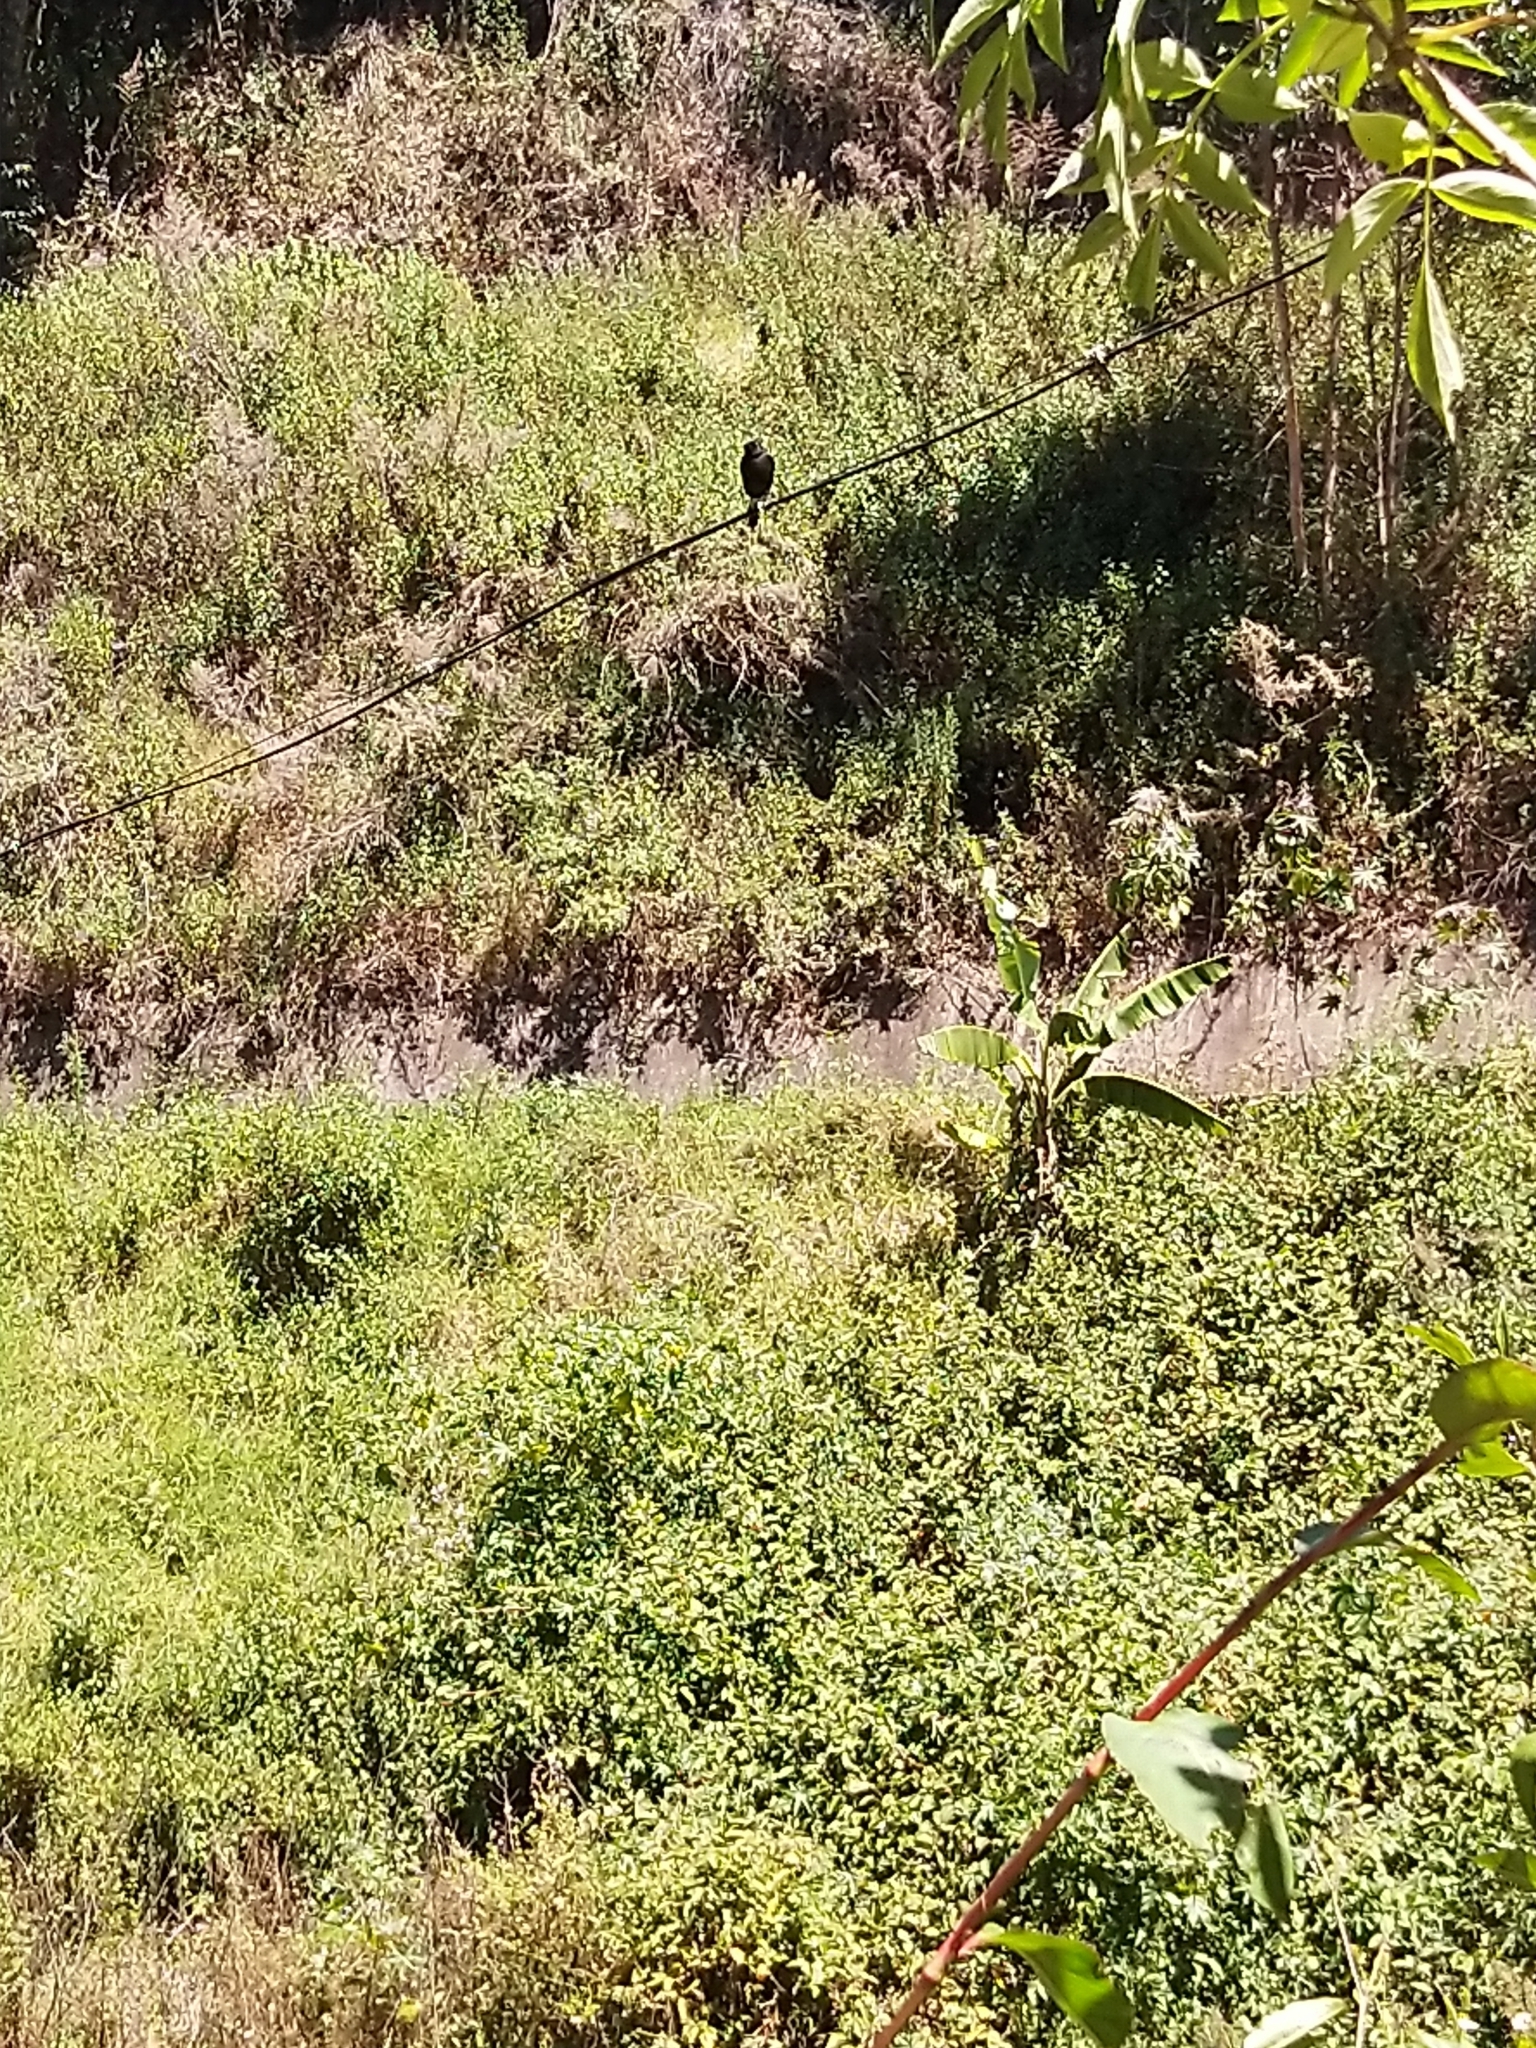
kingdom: Animalia
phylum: Chordata
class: Aves
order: Passeriformes
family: Muscicapidae
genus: Saxicola
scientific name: Saxicola caprata
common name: Pied bush chat
